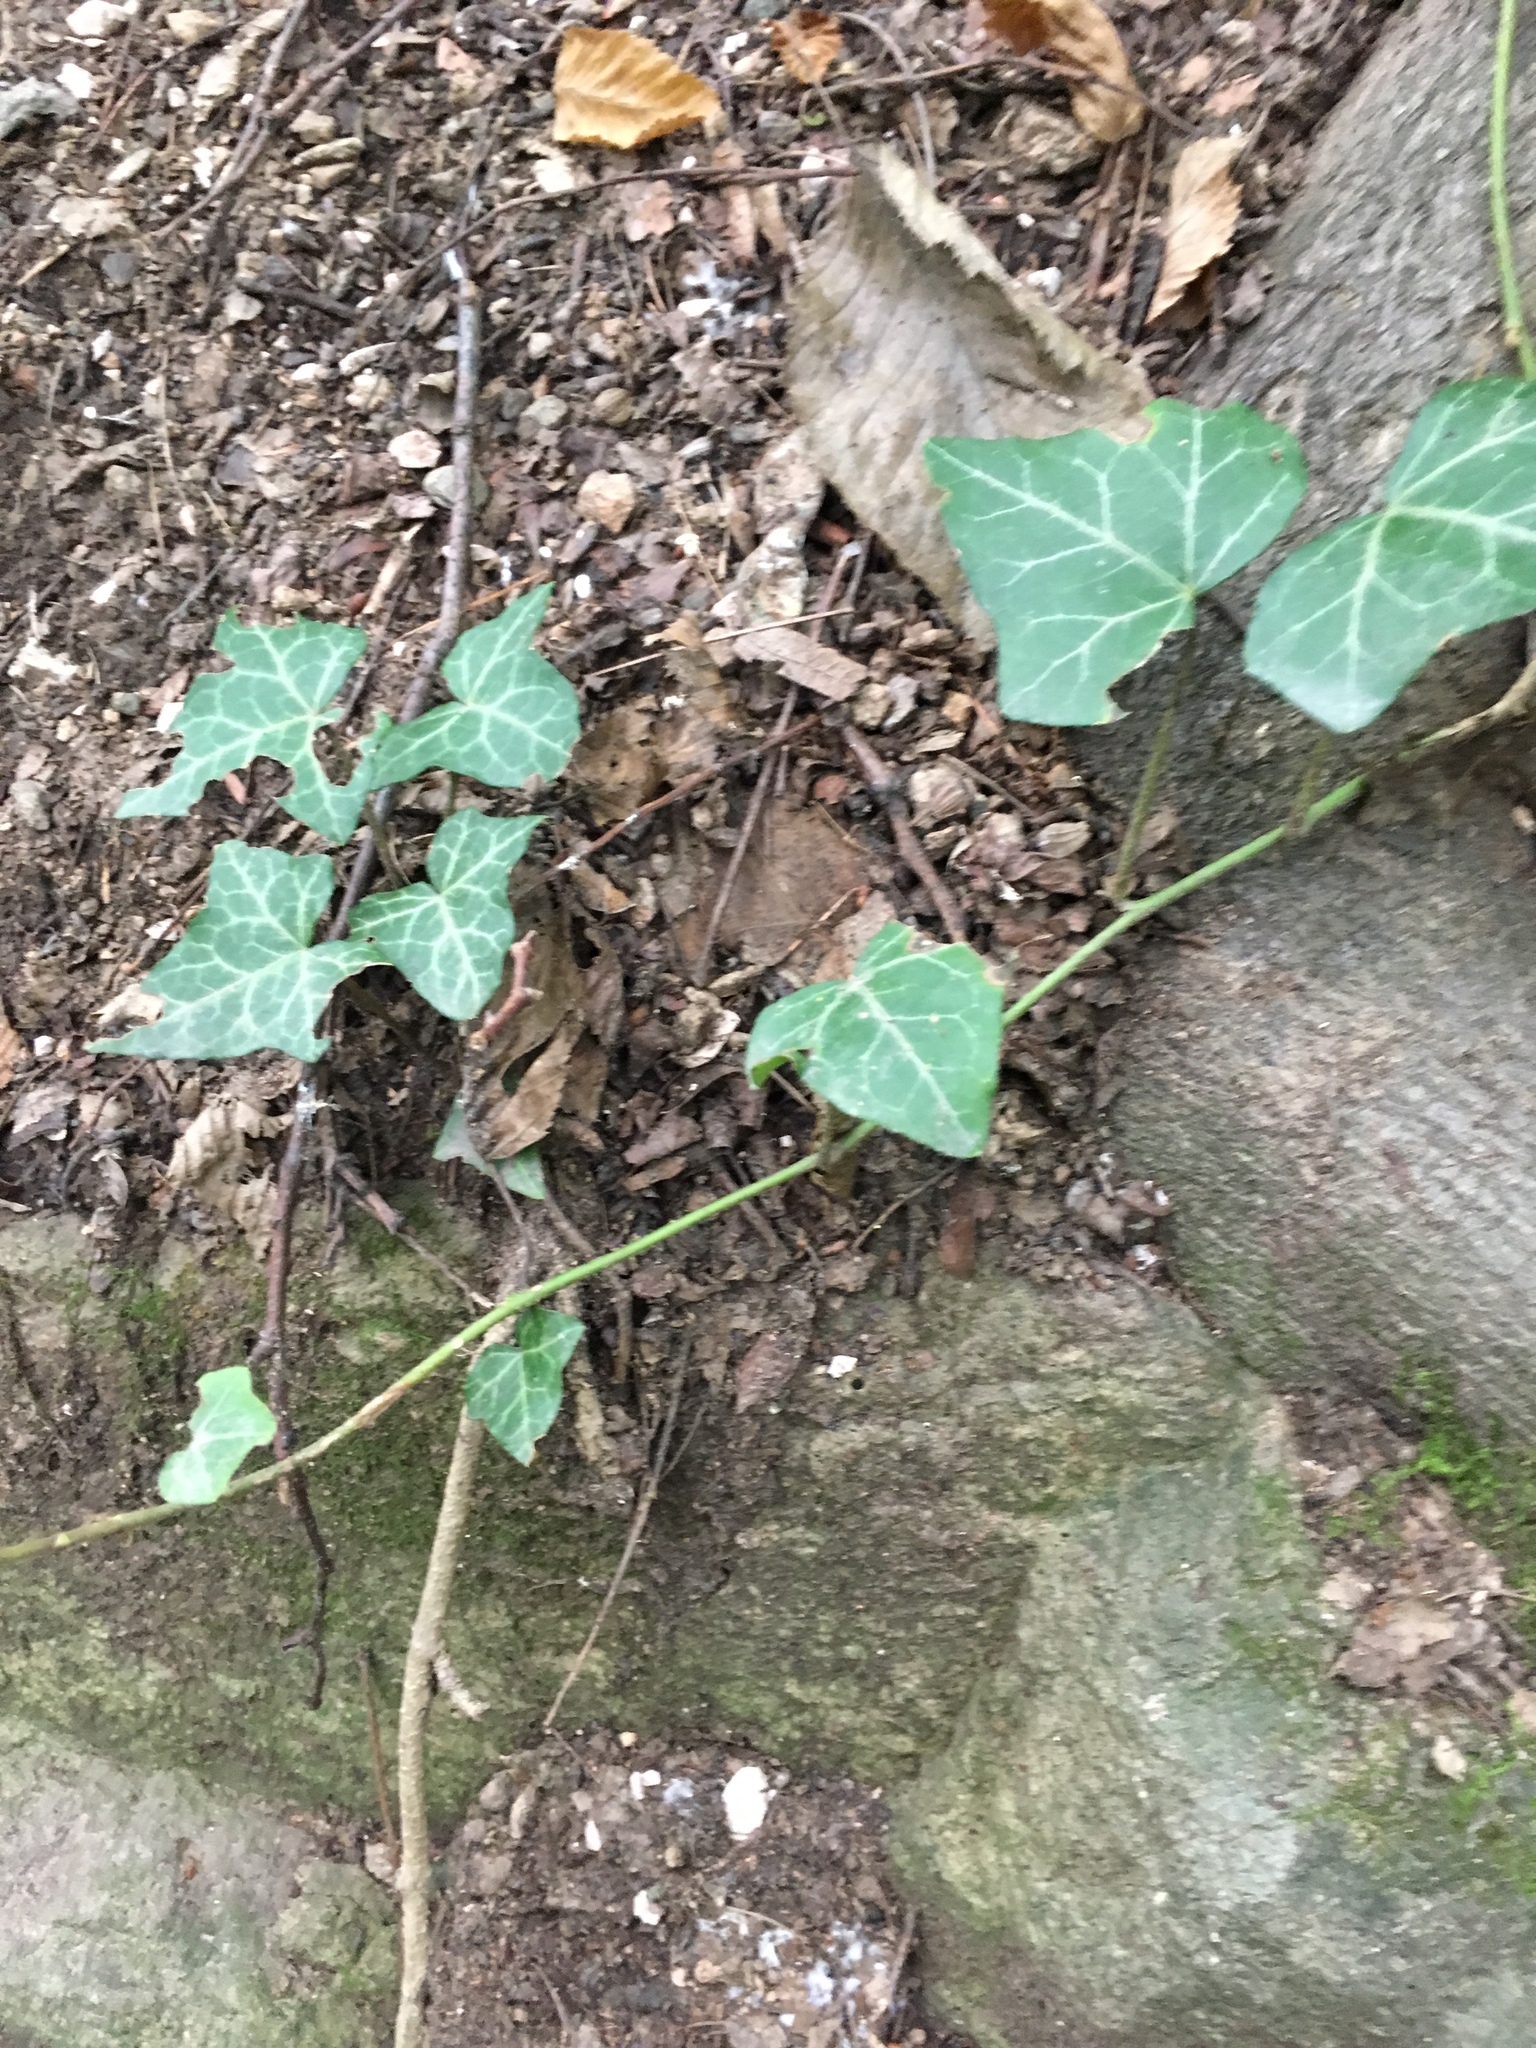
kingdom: Plantae
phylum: Tracheophyta
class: Magnoliopsida
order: Apiales
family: Araliaceae
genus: Hedera
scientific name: Hedera helix
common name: Ivy
